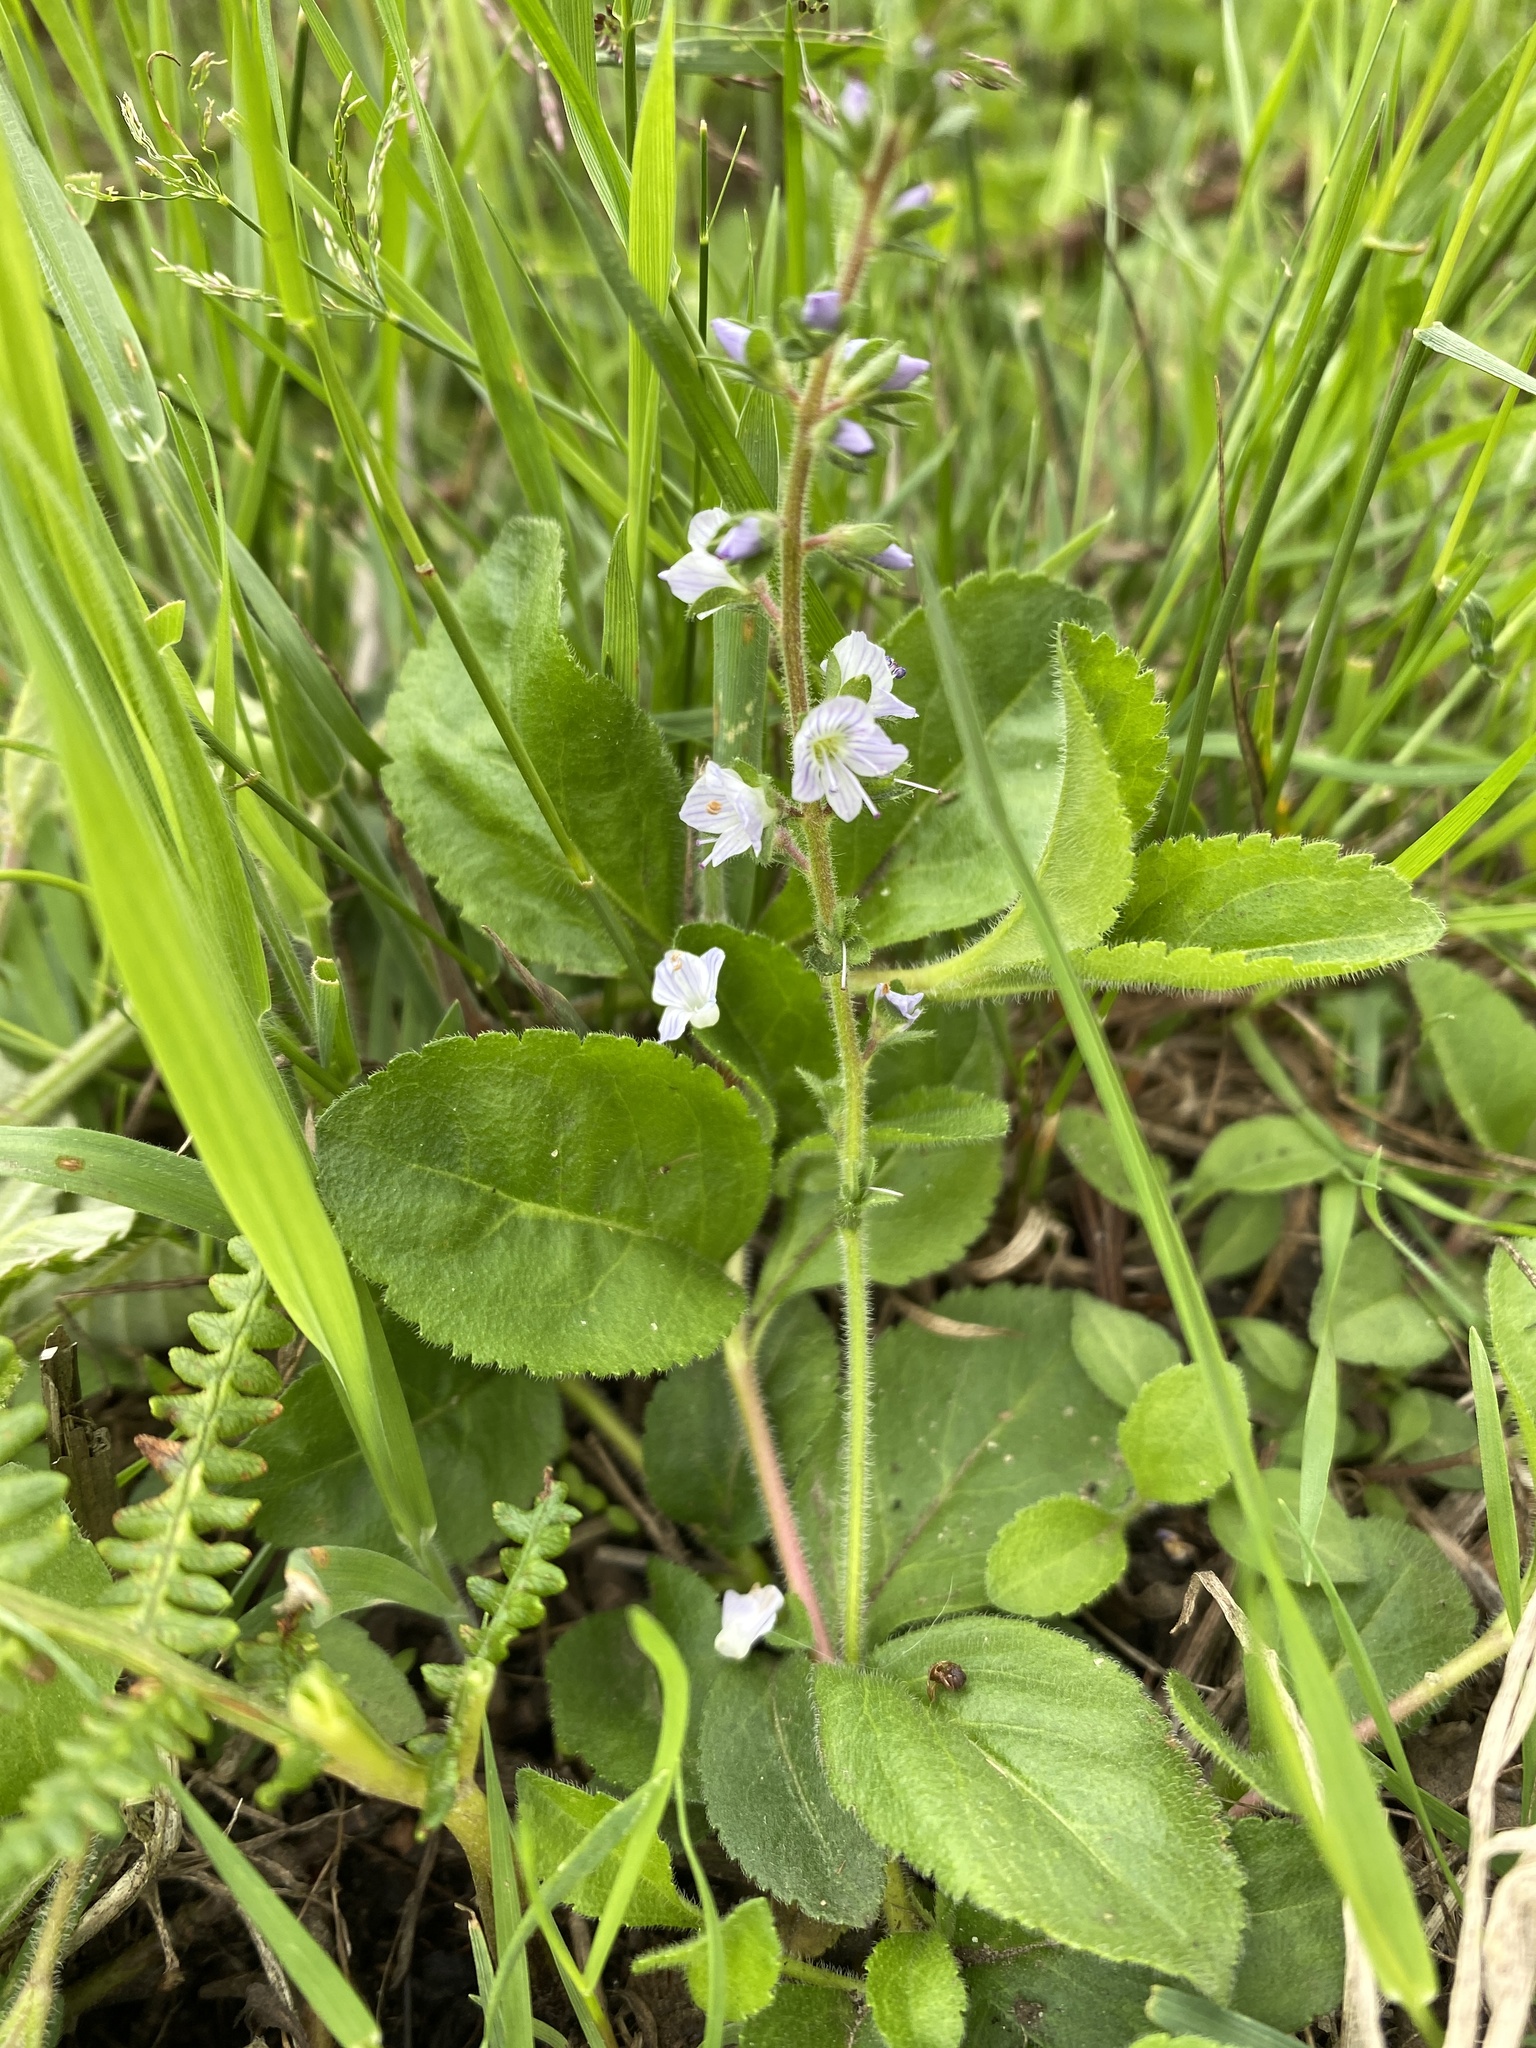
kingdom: Plantae
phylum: Tracheophyta
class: Magnoliopsida
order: Lamiales
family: Plantaginaceae
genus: Veronica
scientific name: Veronica officinalis
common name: Common speedwell
